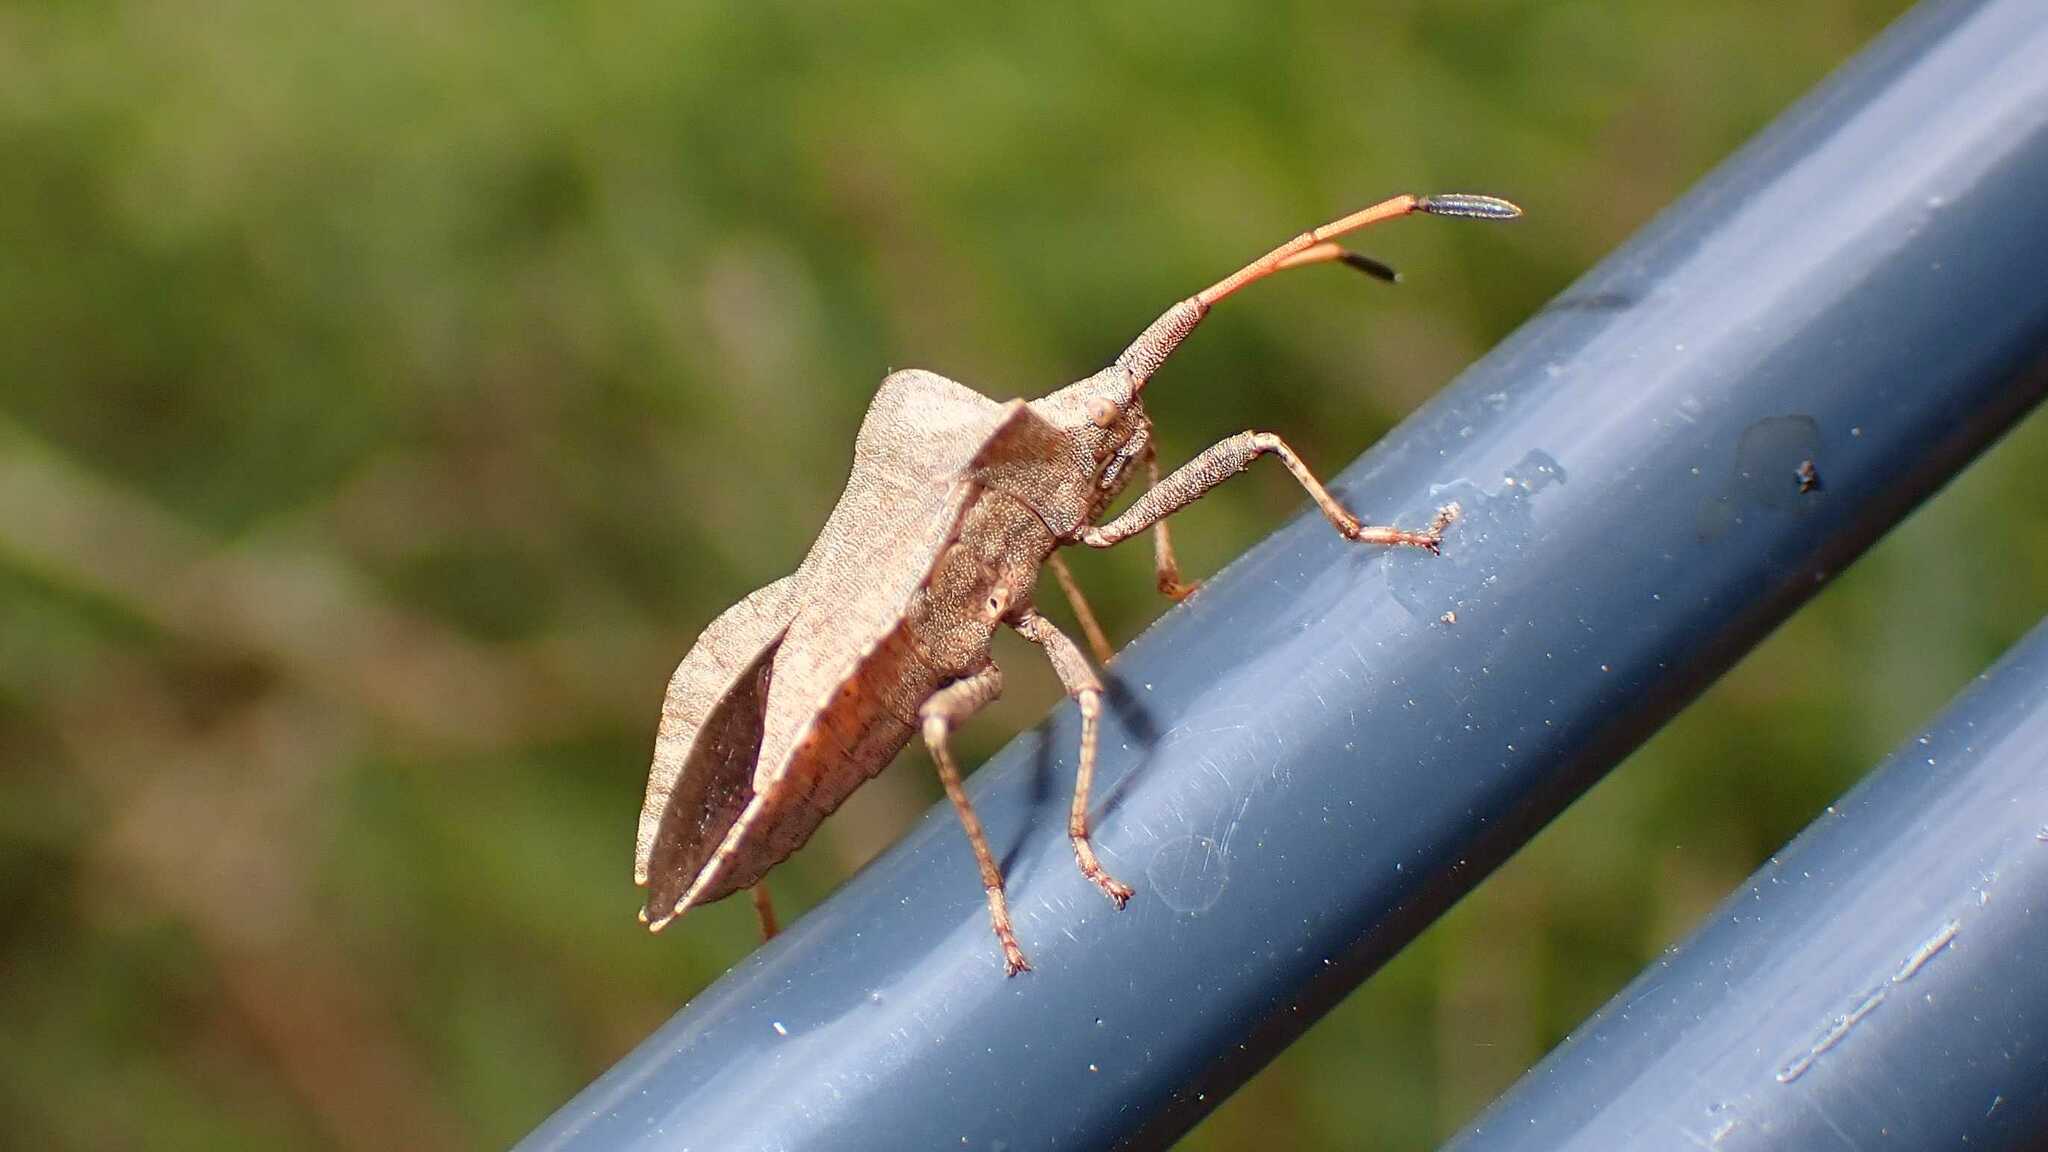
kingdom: Animalia
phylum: Arthropoda
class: Insecta
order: Hemiptera
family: Coreidae
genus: Coreus
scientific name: Coreus marginatus
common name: Dock bug
